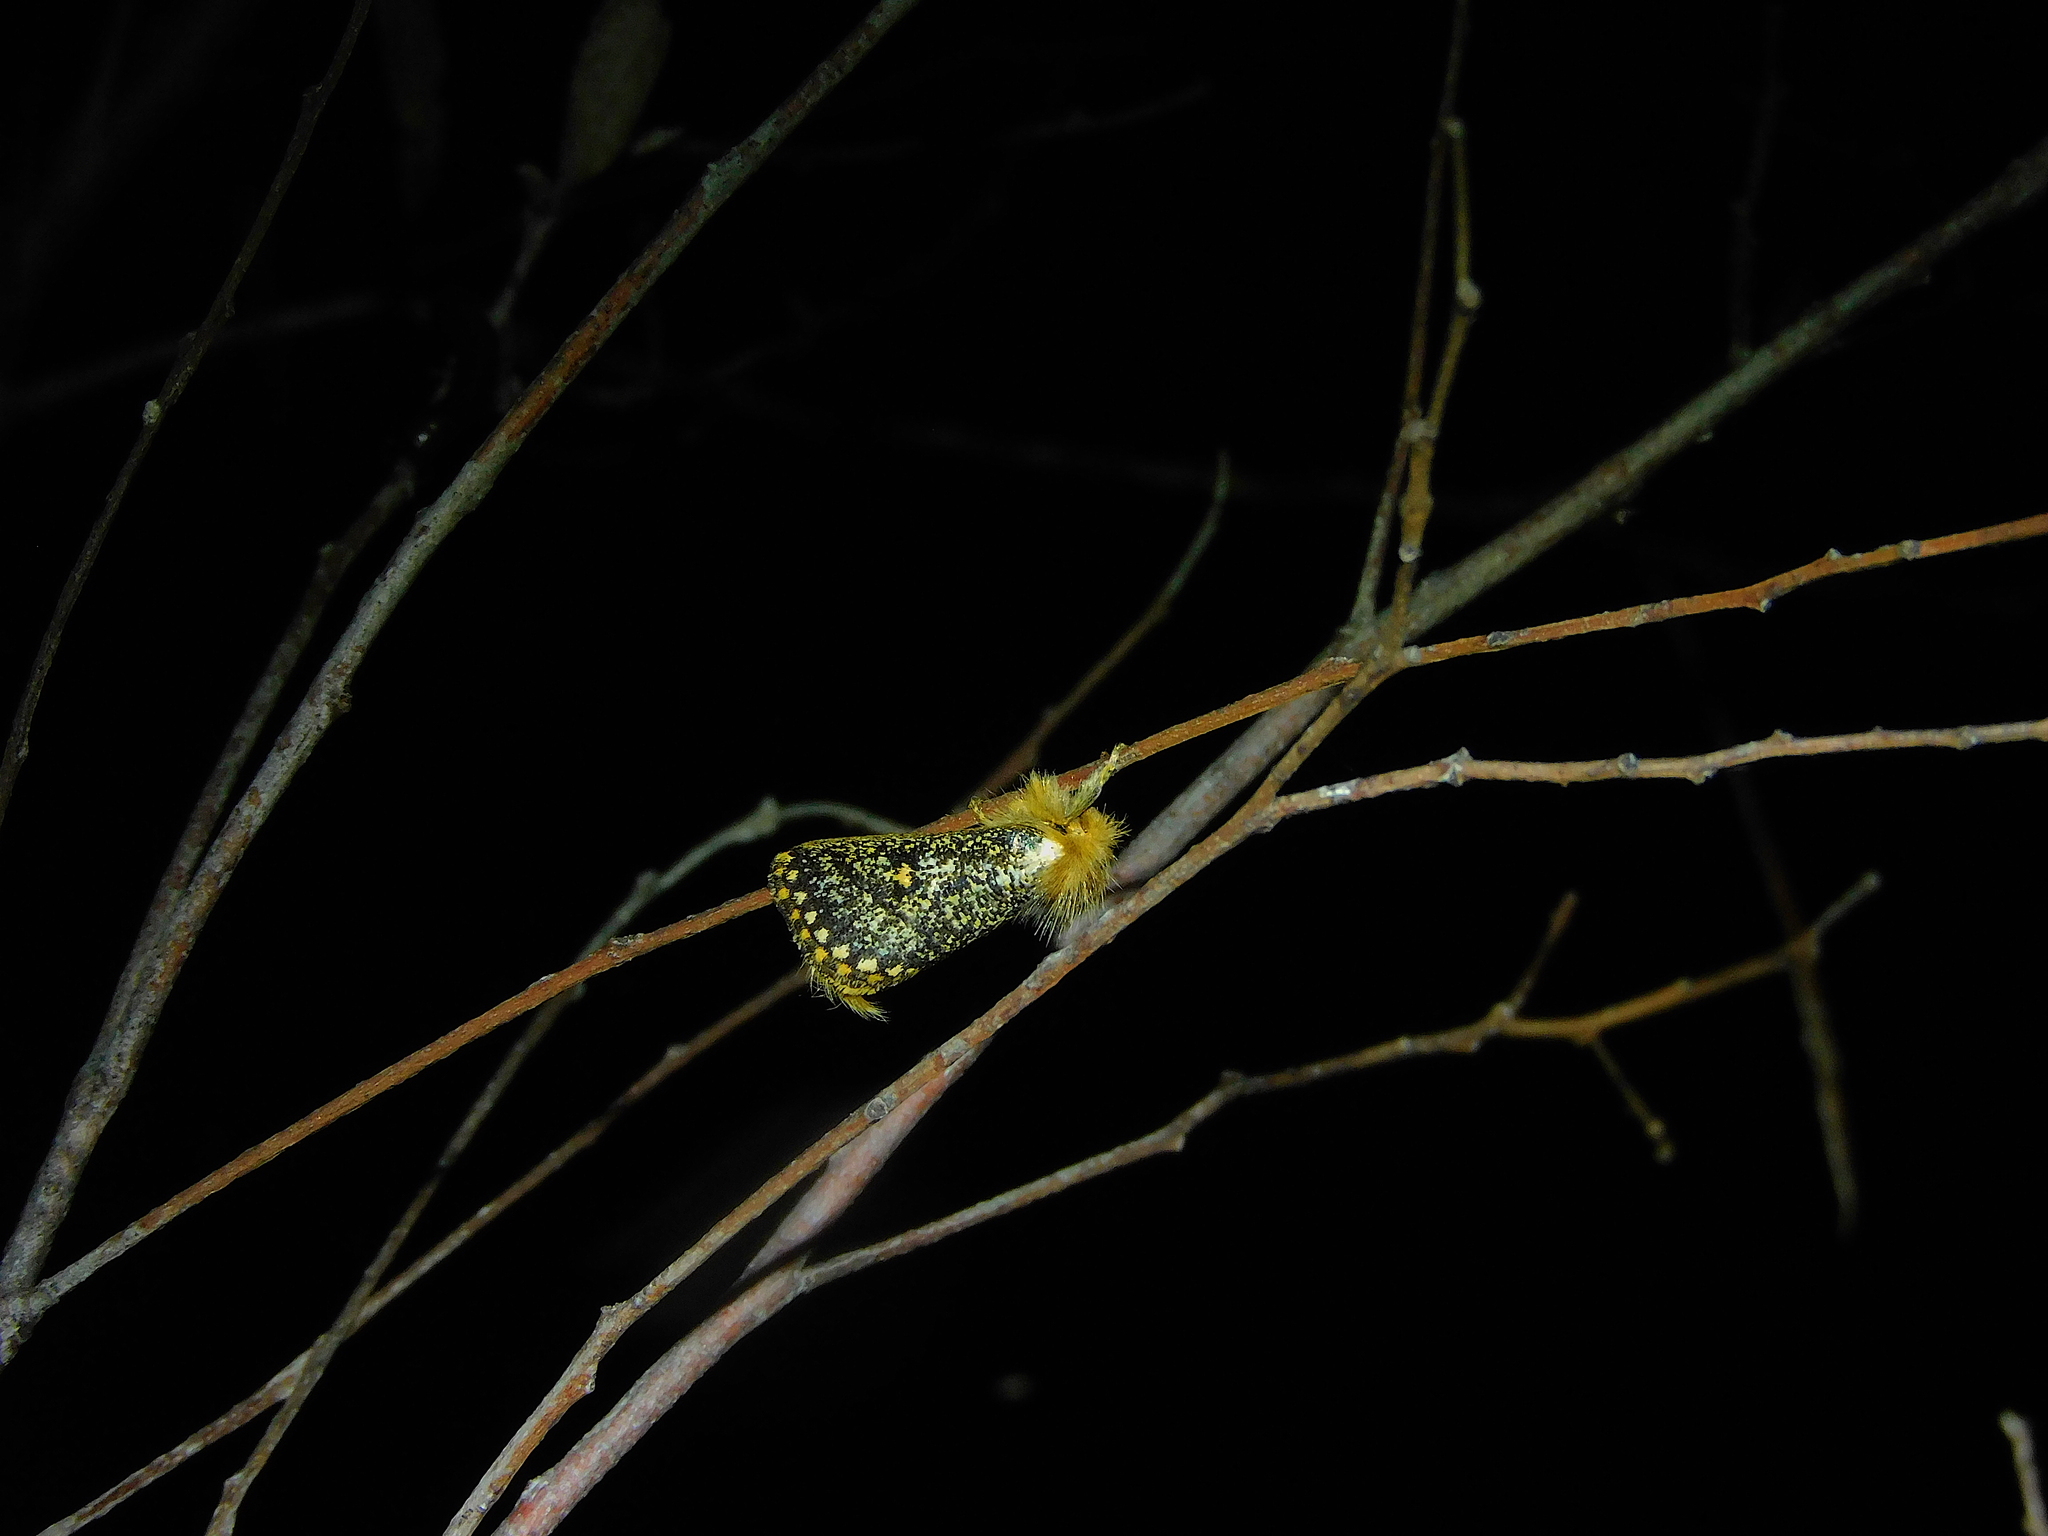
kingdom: Animalia
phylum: Arthropoda
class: Insecta
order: Lepidoptera
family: Notodontidae
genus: Epicoma
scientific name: Epicoma pontificalis
